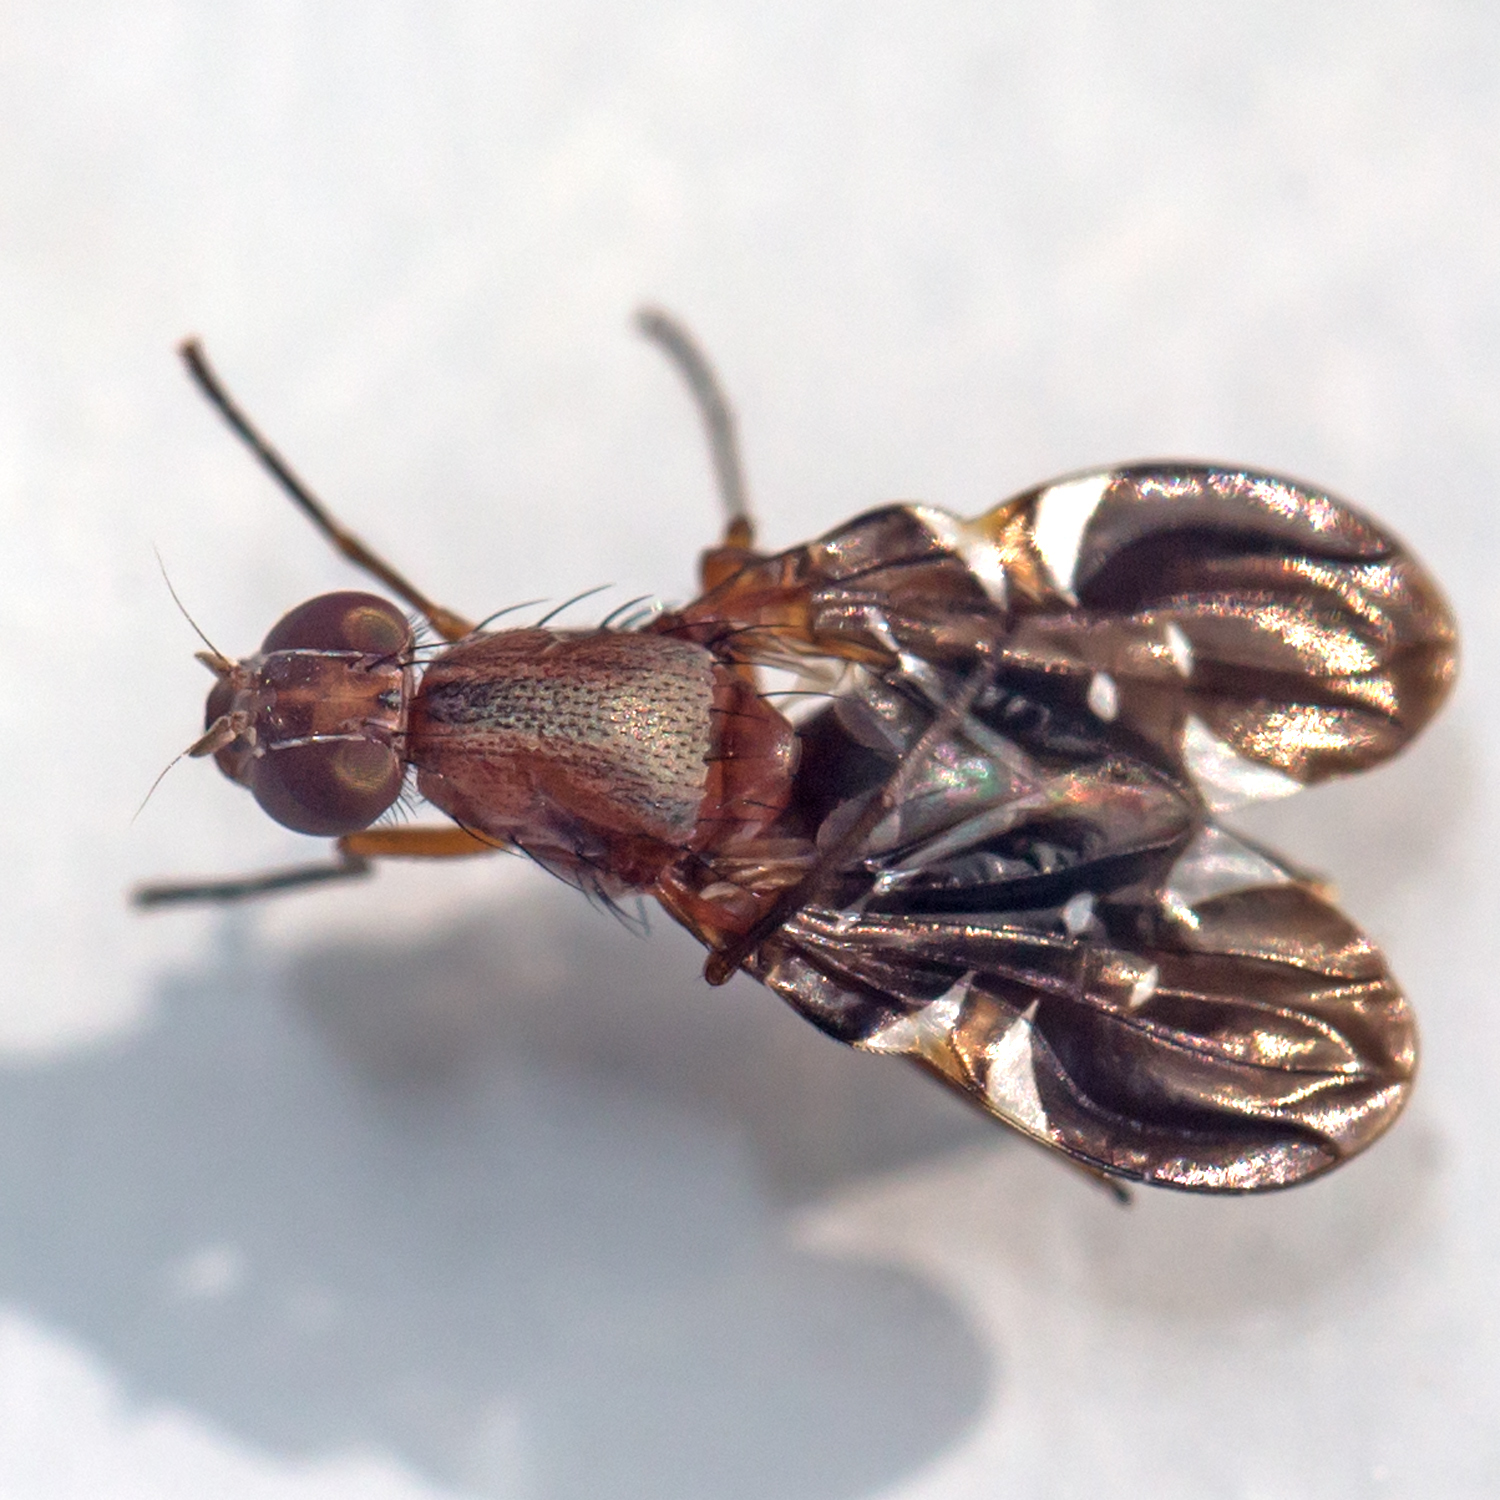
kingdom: Animalia
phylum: Arthropoda
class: Insecta
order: Diptera
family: Ulidiidae
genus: Delphinia
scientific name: Delphinia picta
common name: Common picture-winged fly
